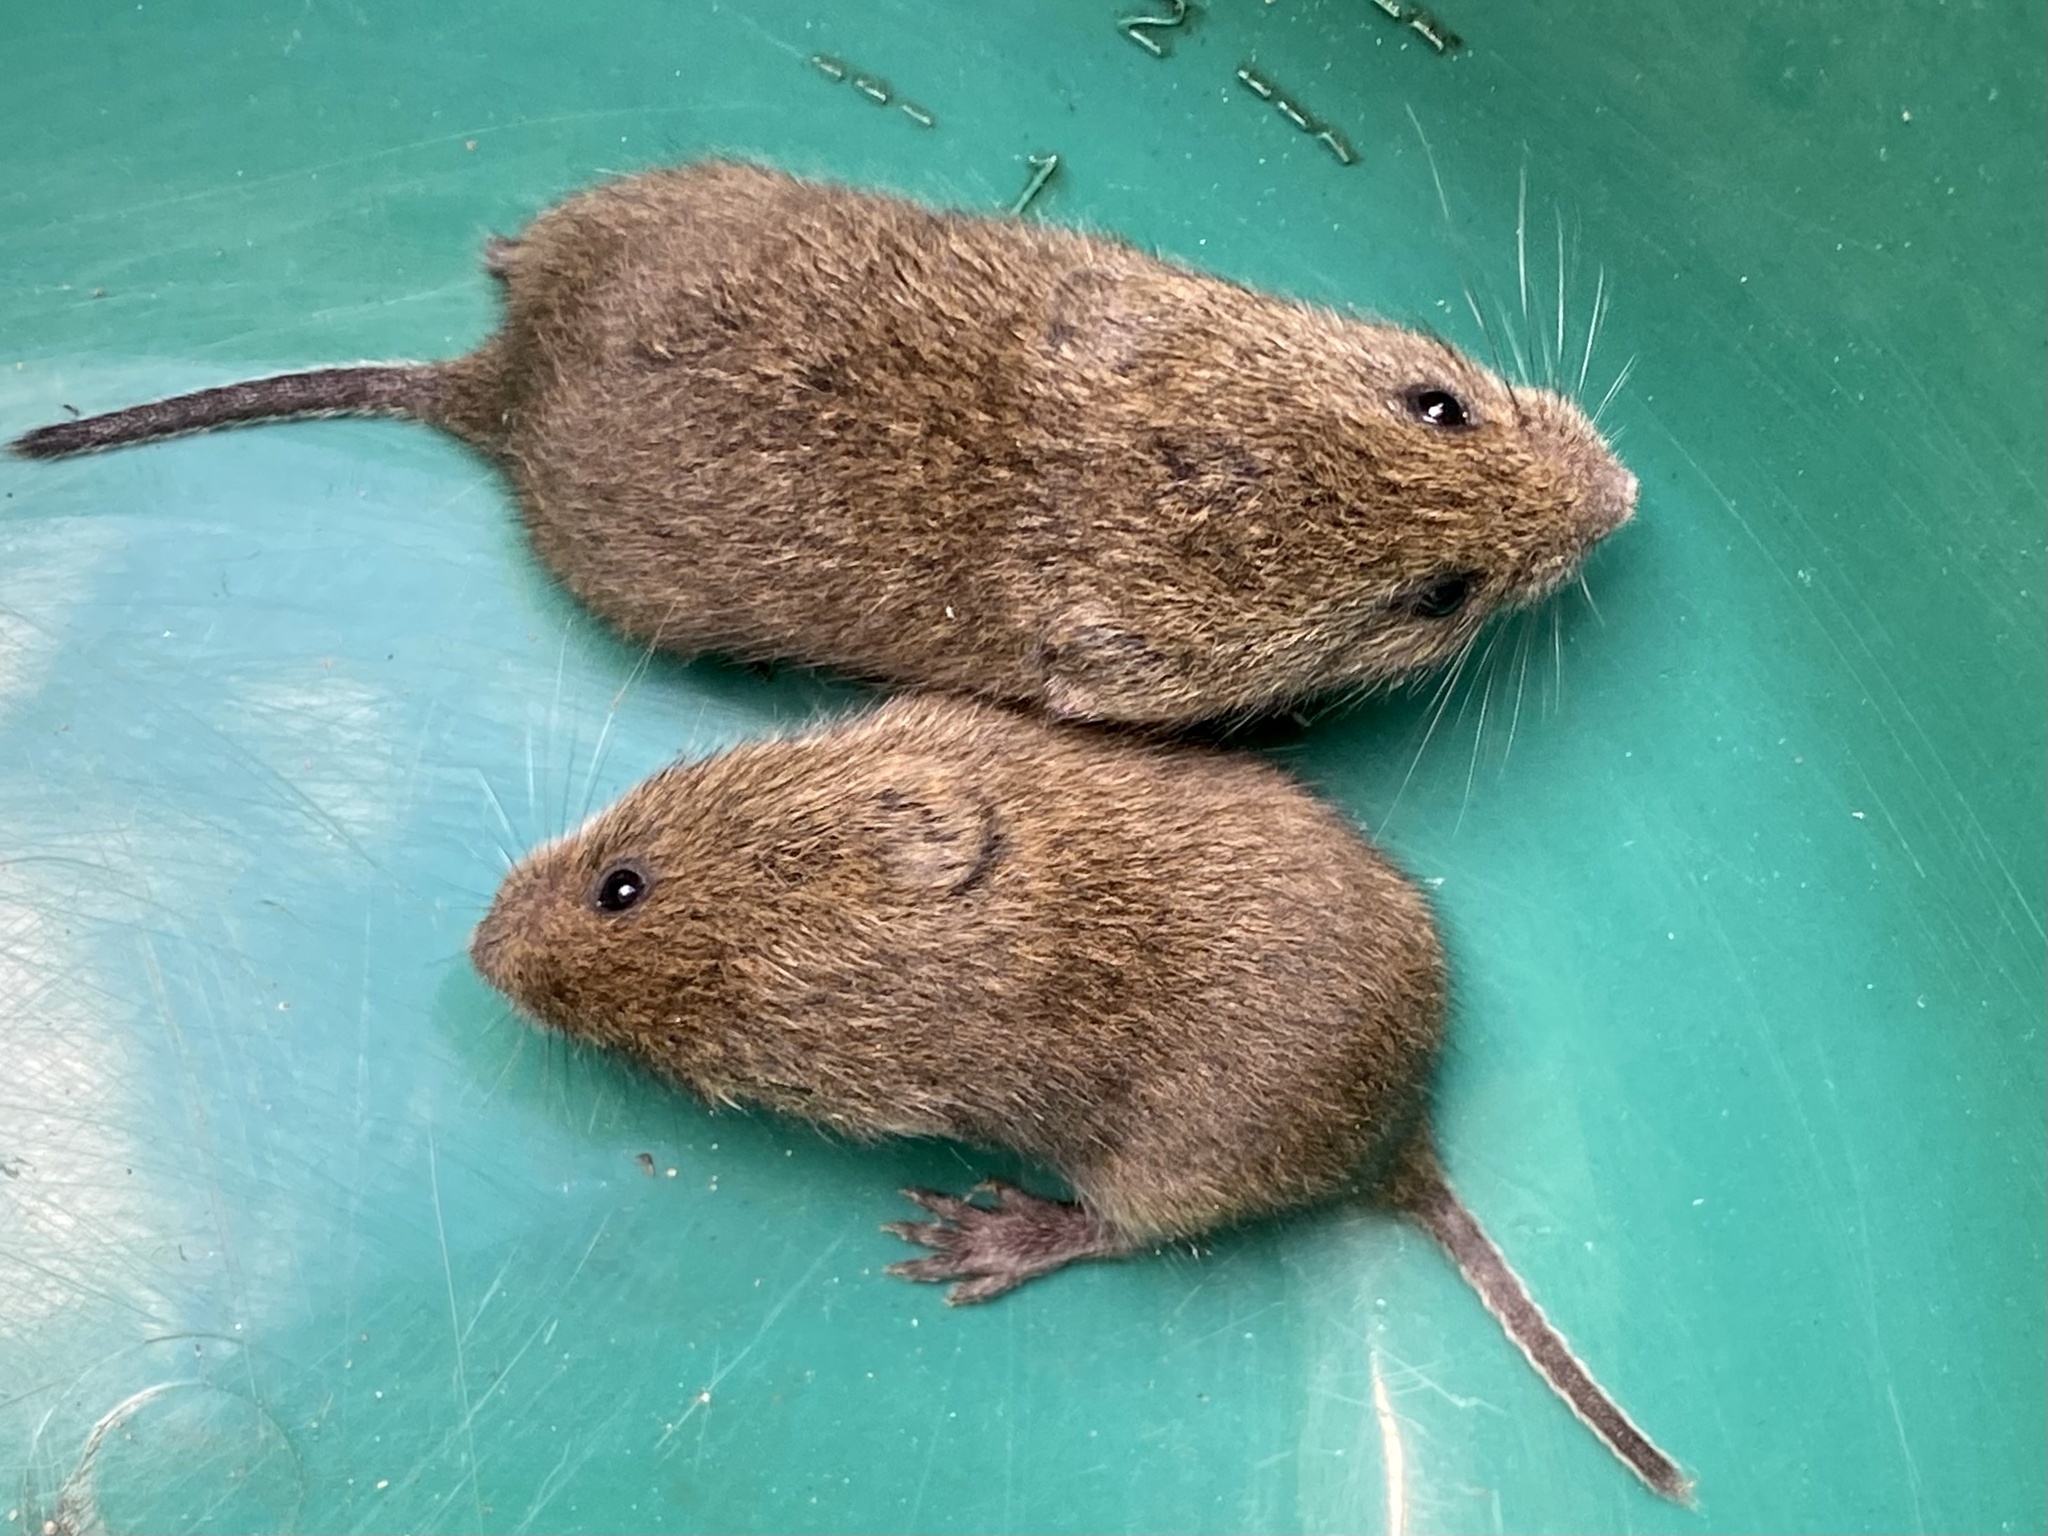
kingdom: Animalia
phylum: Chordata
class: Mammalia
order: Rodentia
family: Cricetidae
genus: Microtus
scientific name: Microtus pennsylvanicus
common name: Meadow vole
